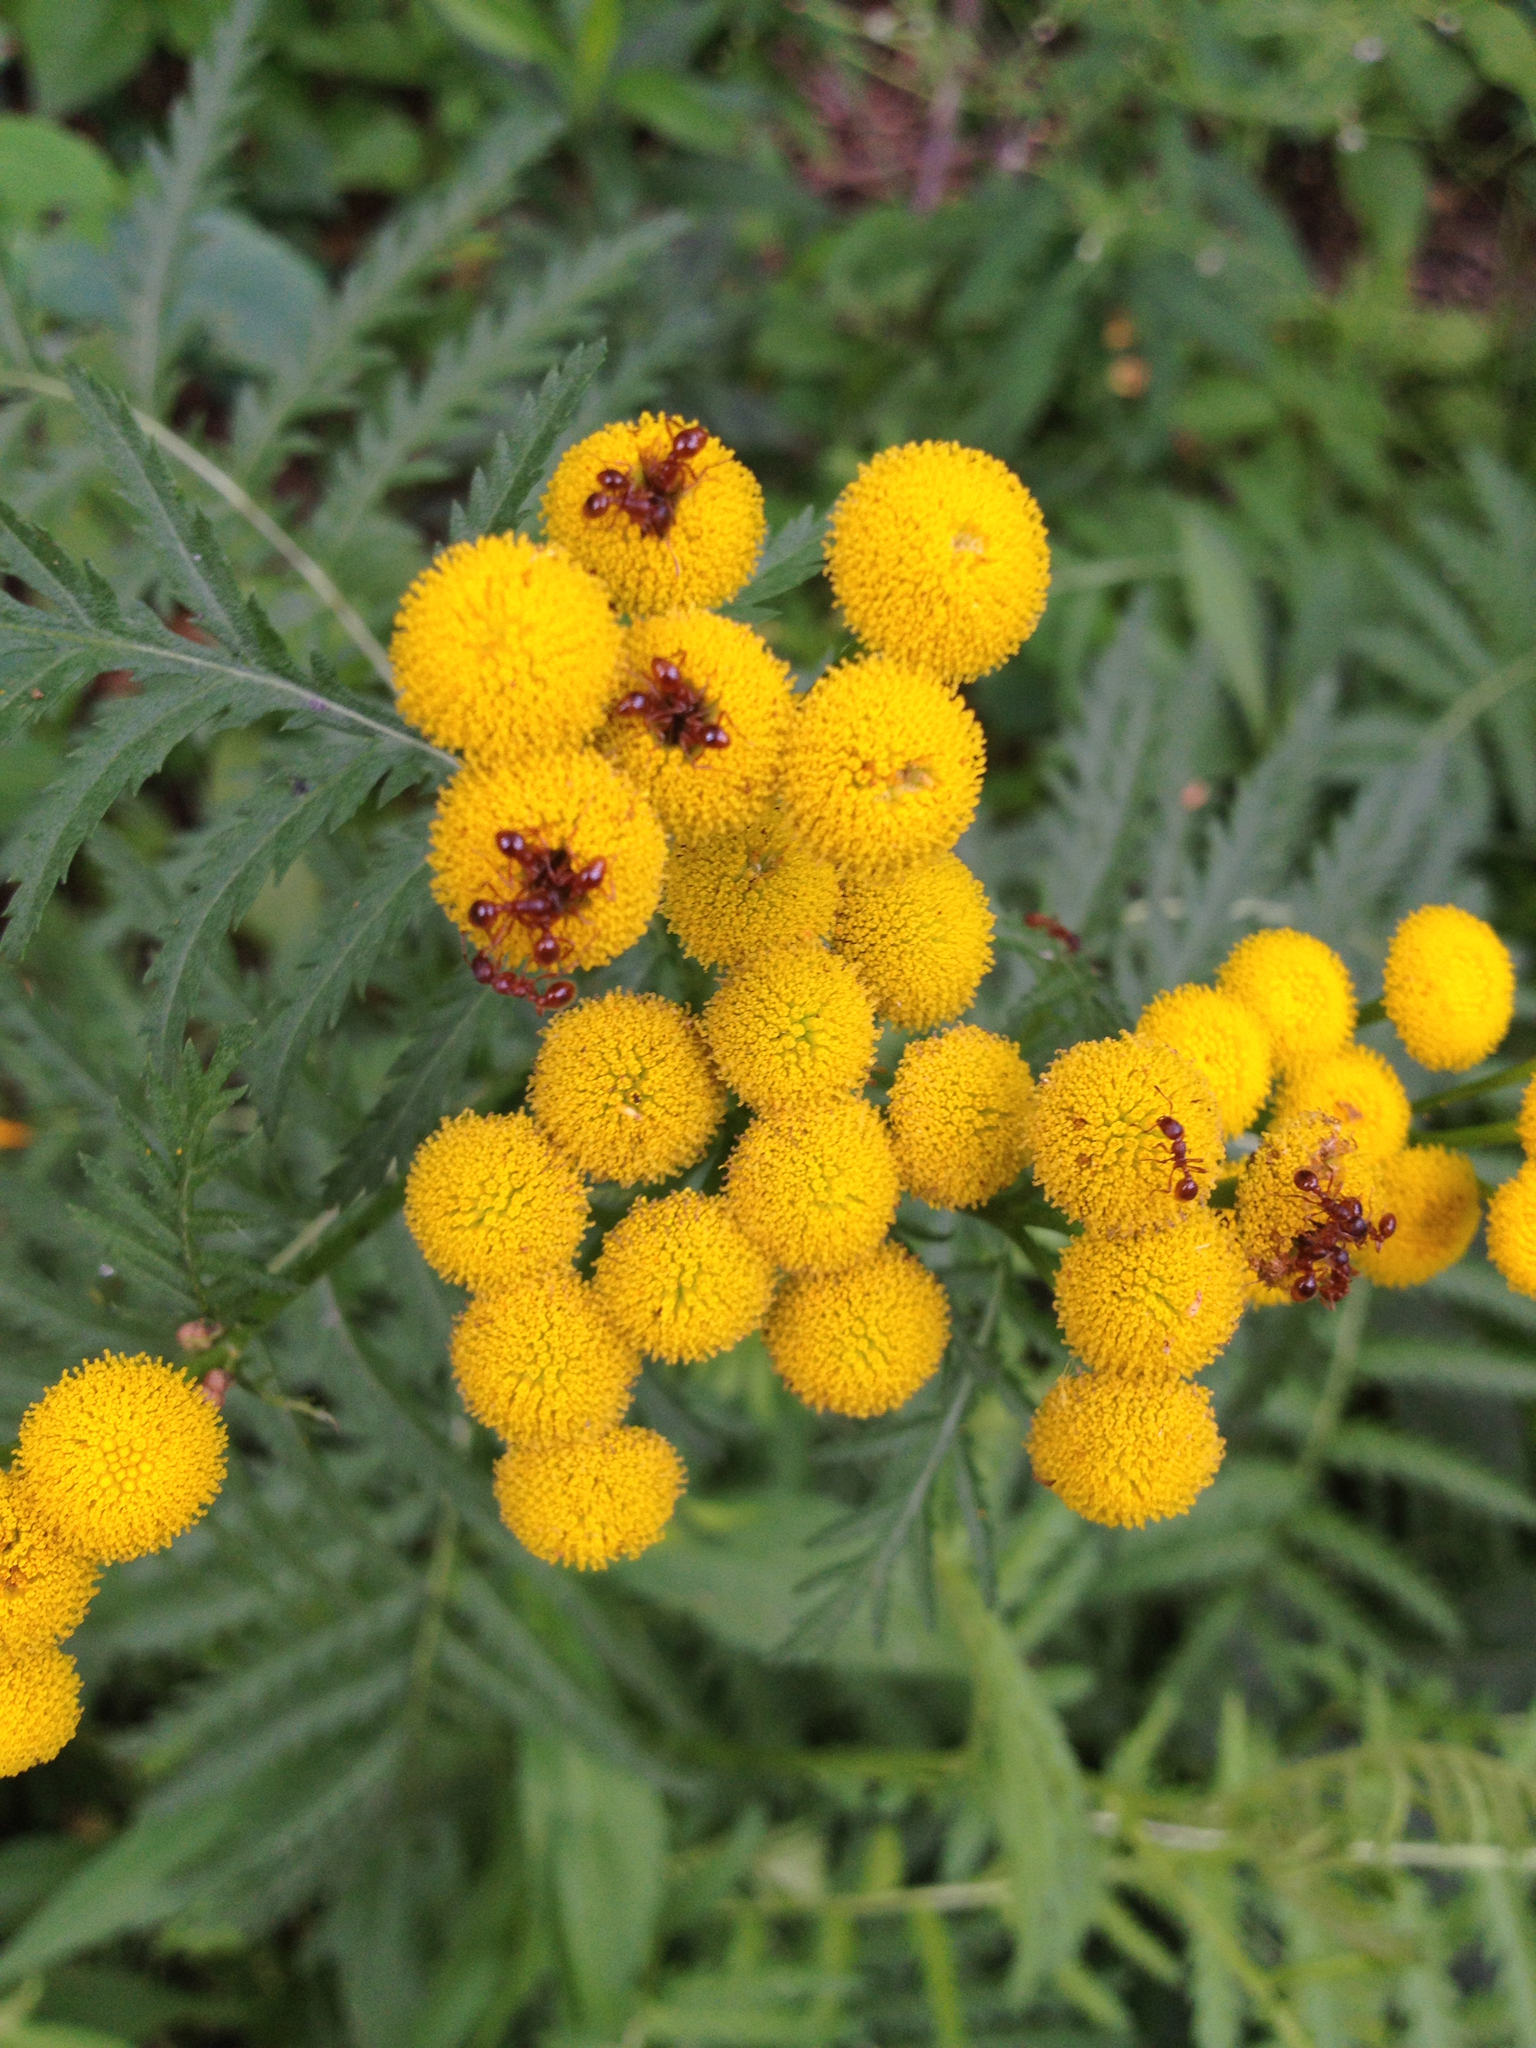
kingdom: Plantae
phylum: Tracheophyta
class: Magnoliopsida
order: Asterales
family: Asteraceae
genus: Tanacetum
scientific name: Tanacetum vulgare
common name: Common tansy
